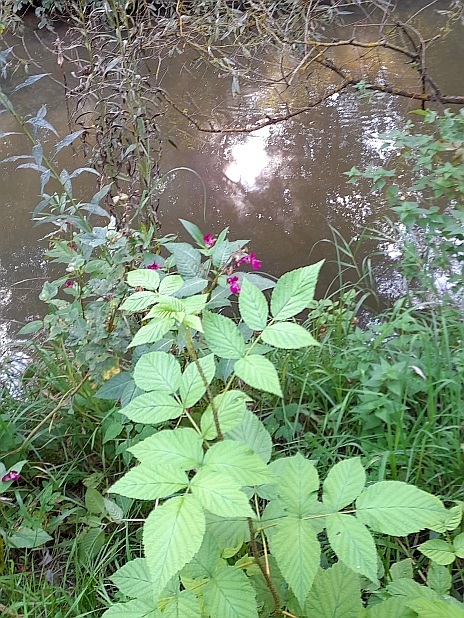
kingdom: Plantae
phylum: Tracheophyta
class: Magnoliopsida
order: Rosales
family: Rosaceae
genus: Rubus
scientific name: Rubus idaeus
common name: Raspberry
